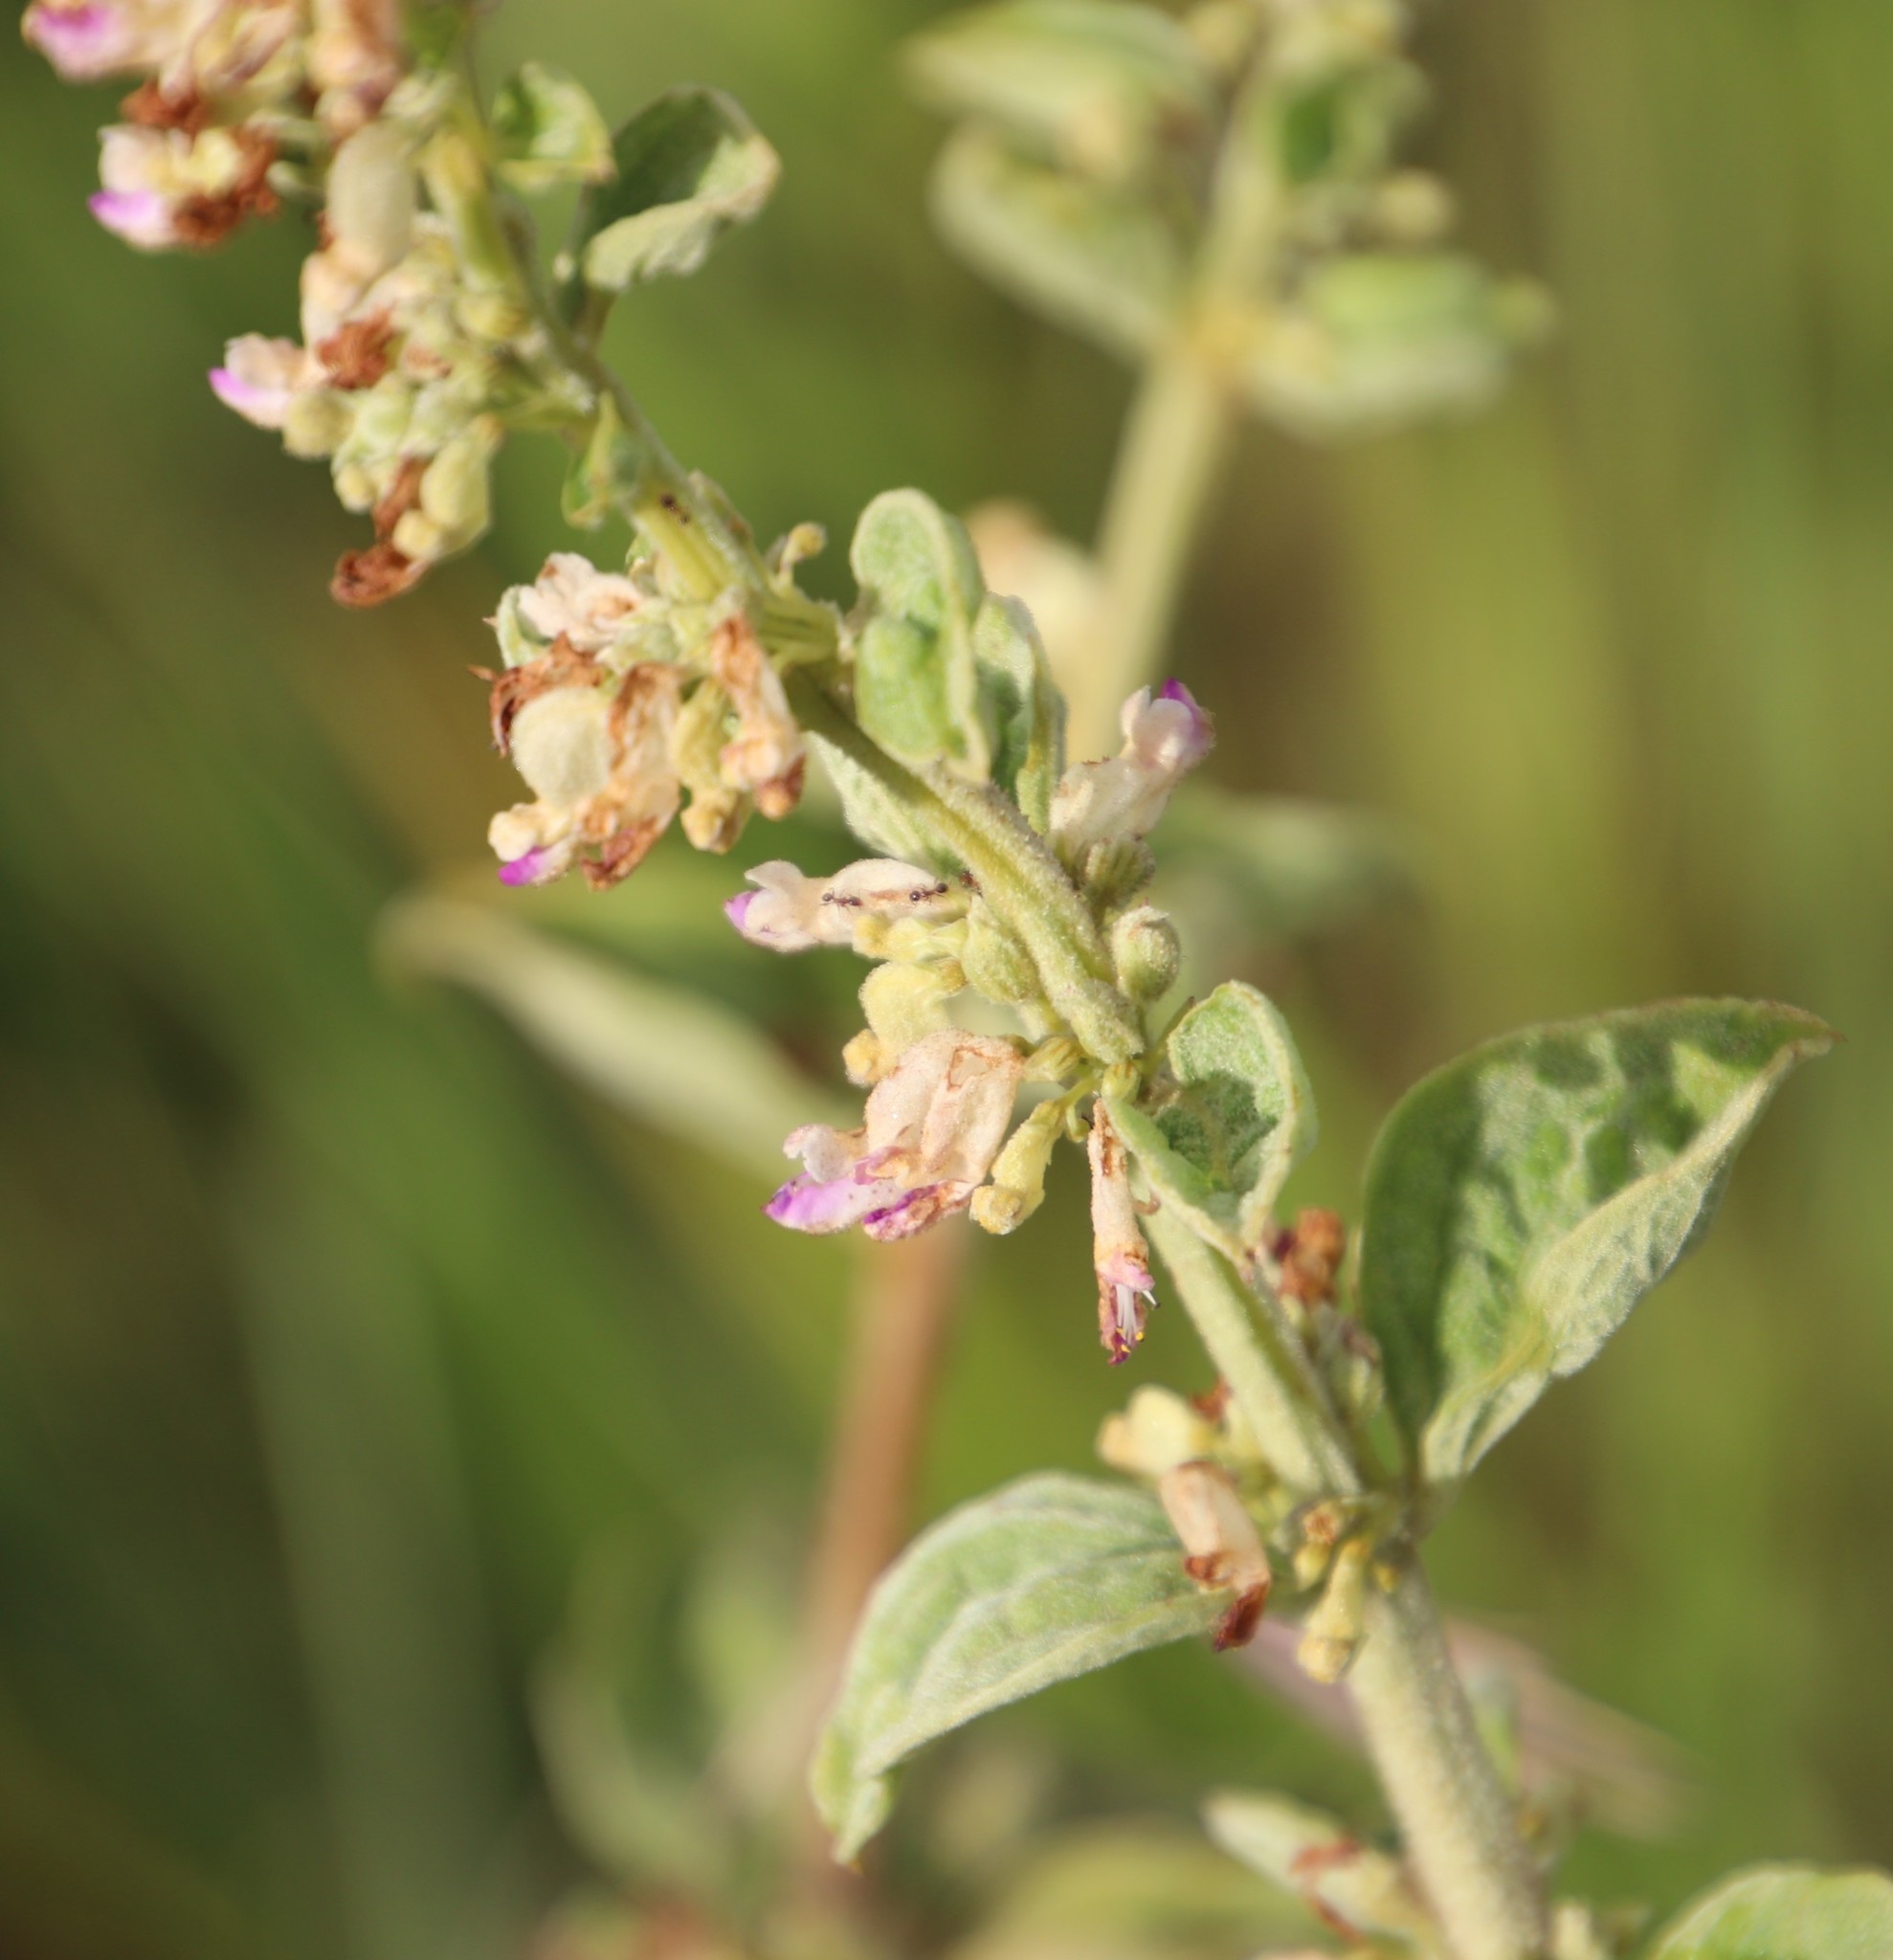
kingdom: Plantae
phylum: Tracheophyta
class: Magnoliopsida
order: Lamiales
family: Lamiaceae
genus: Coleus
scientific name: Coleus calycinus
